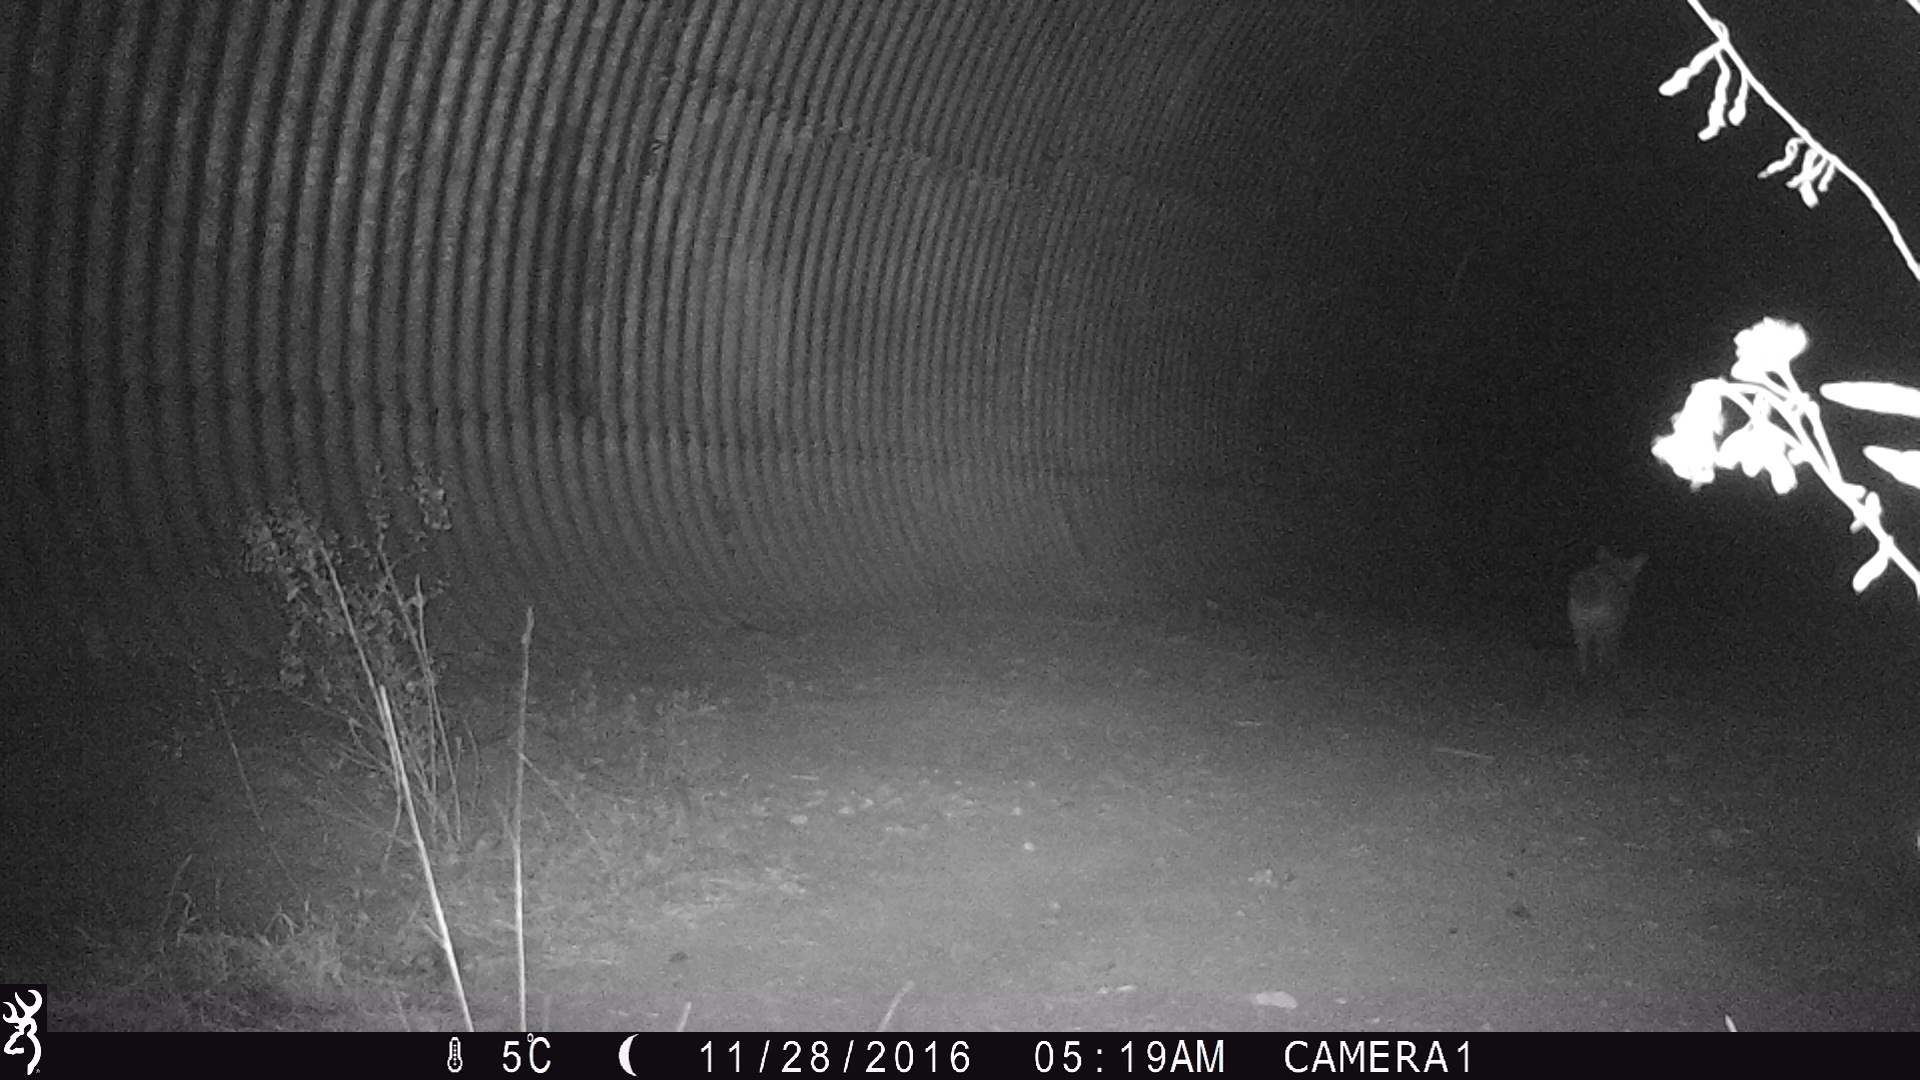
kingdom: Animalia
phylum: Chordata
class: Mammalia
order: Carnivora
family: Canidae
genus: Canis
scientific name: Canis latrans
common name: Coyote
